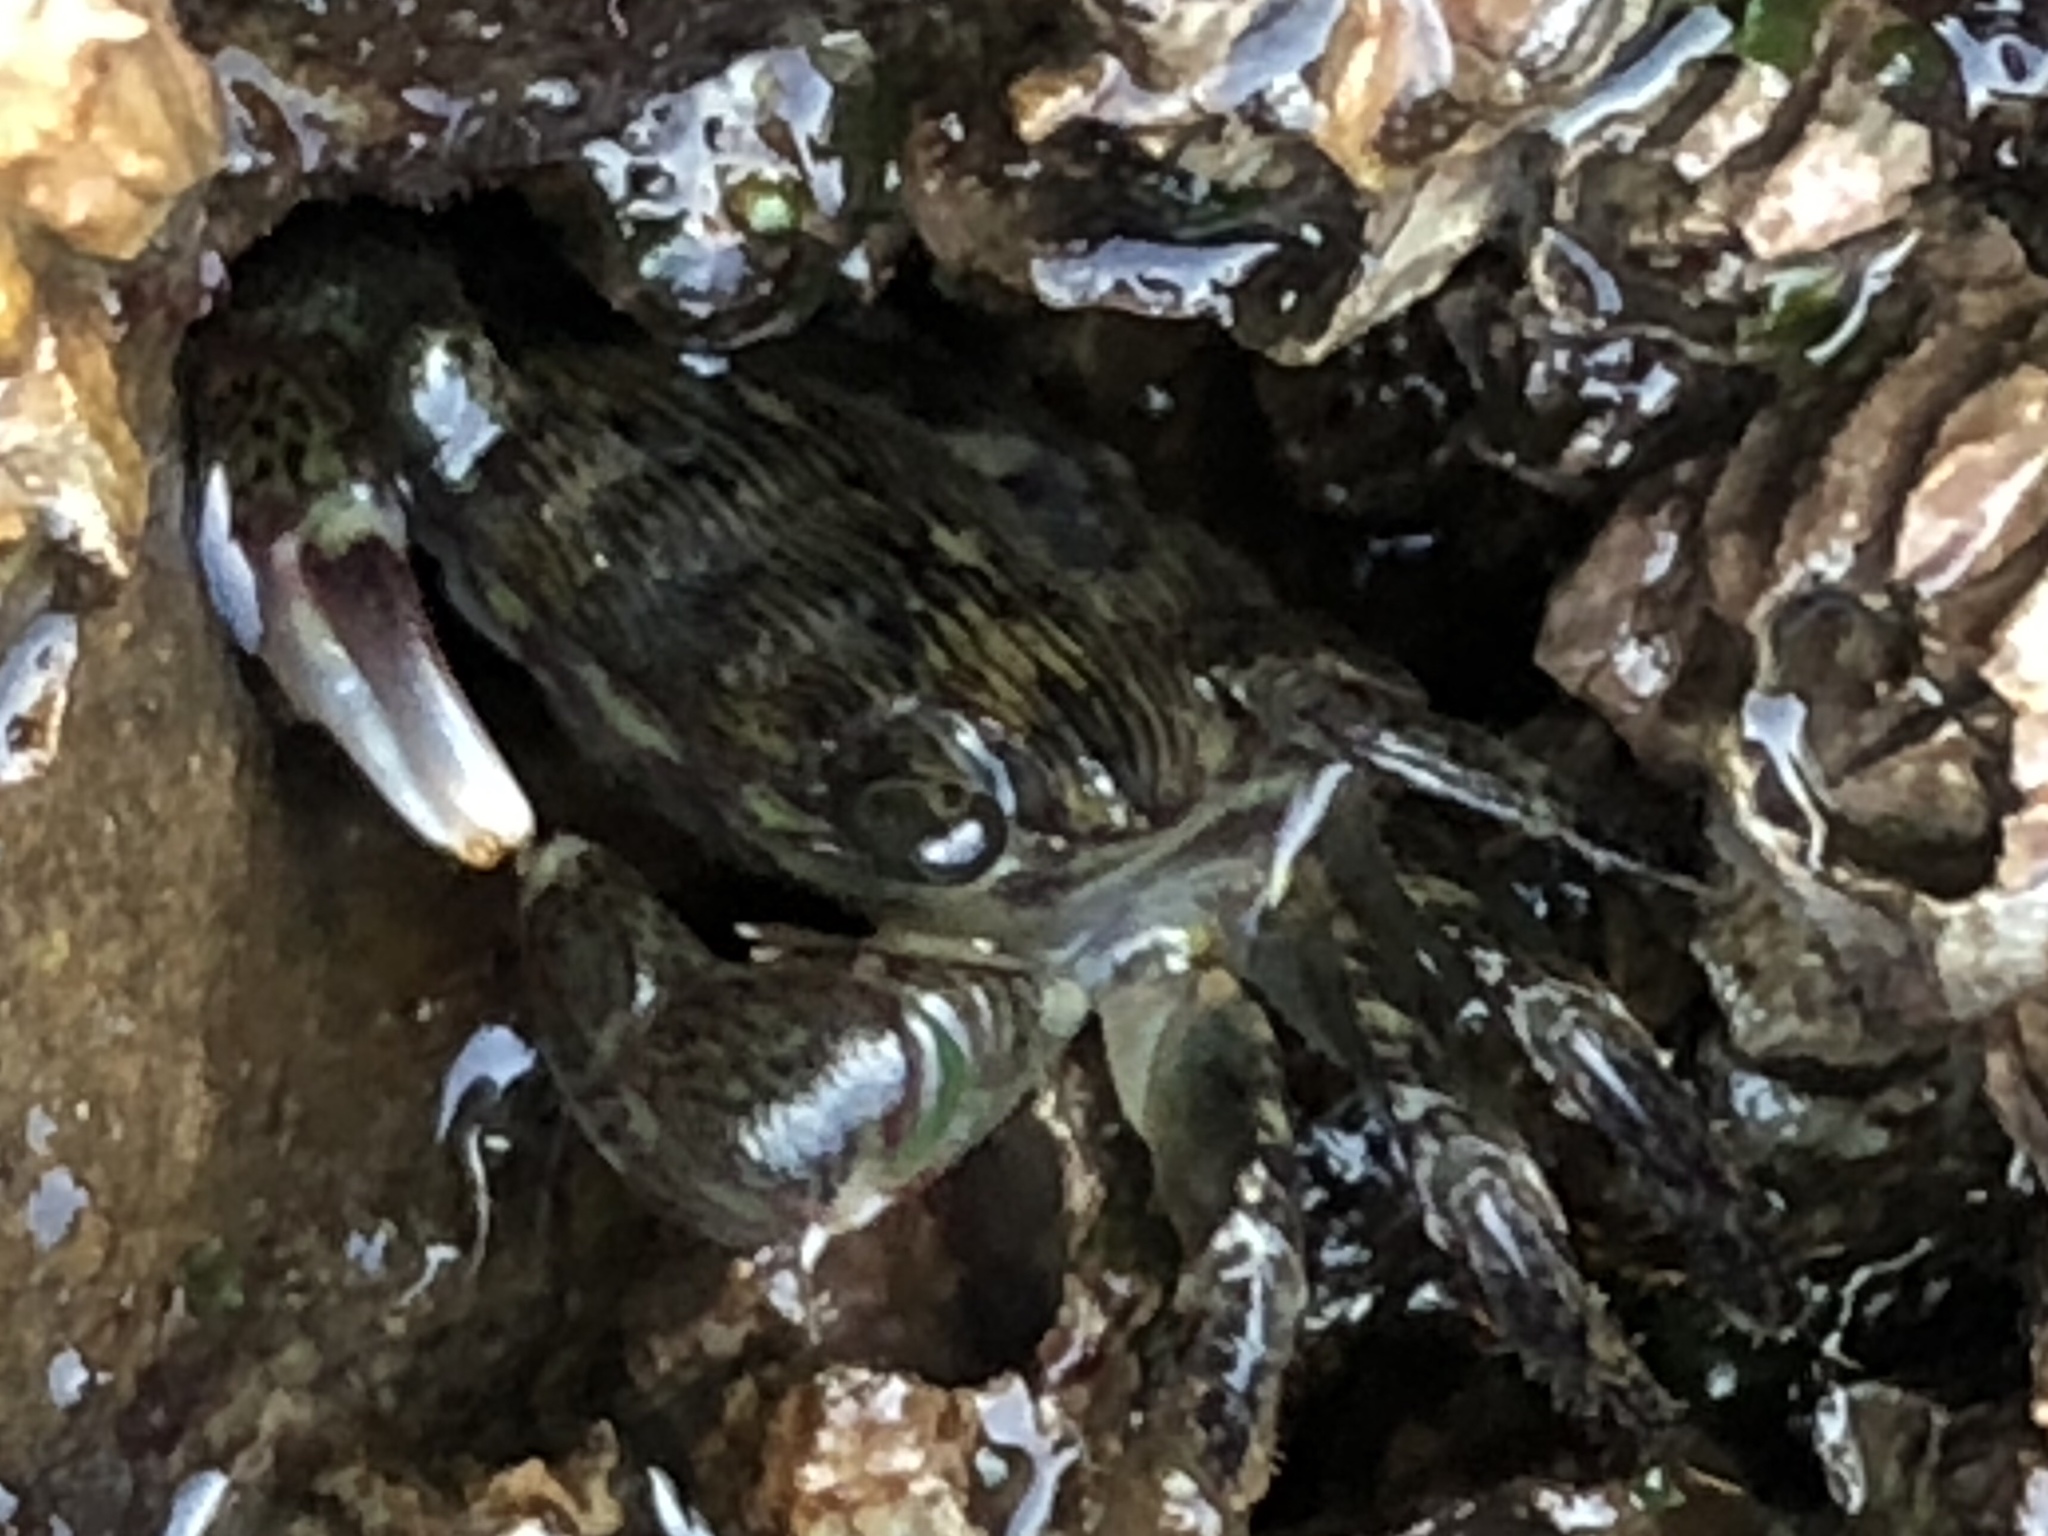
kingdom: Animalia
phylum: Arthropoda
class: Malacostraca
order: Decapoda
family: Grapsidae
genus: Pachygrapsus
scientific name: Pachygrapsus crassipes
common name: Striped shore crab
